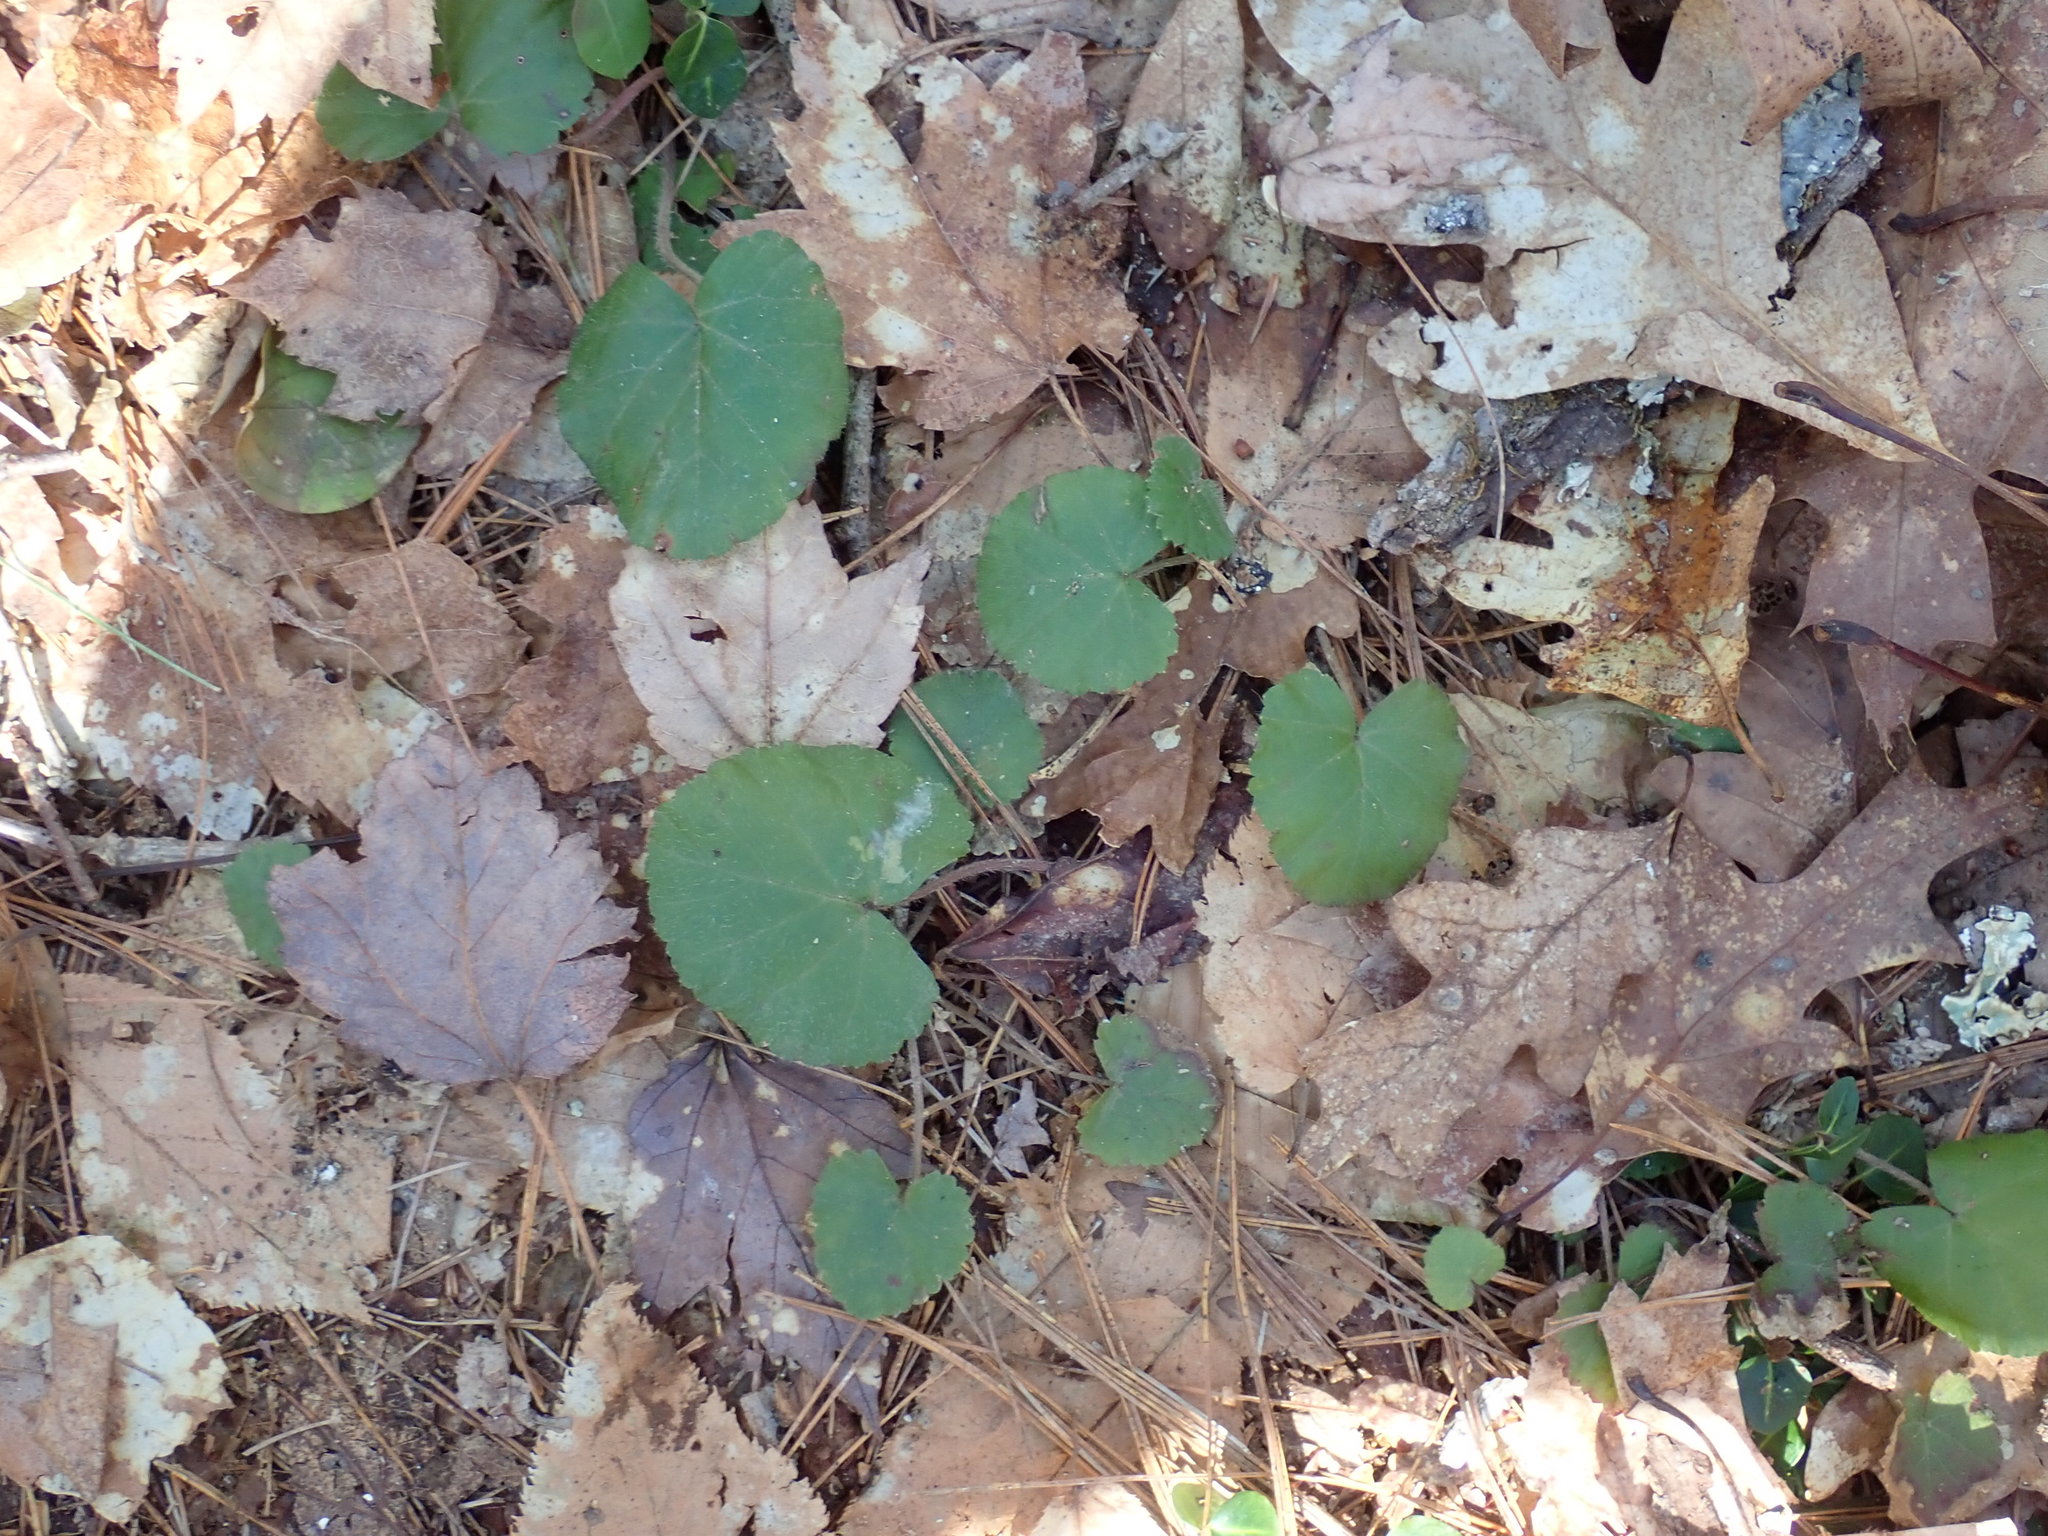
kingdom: Plantae
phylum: Tracheophyta
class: Magnoliopsida
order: Rosales
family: Rosaceae
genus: Dalibarda
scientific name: Dalibarda repens
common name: Dewdrop
